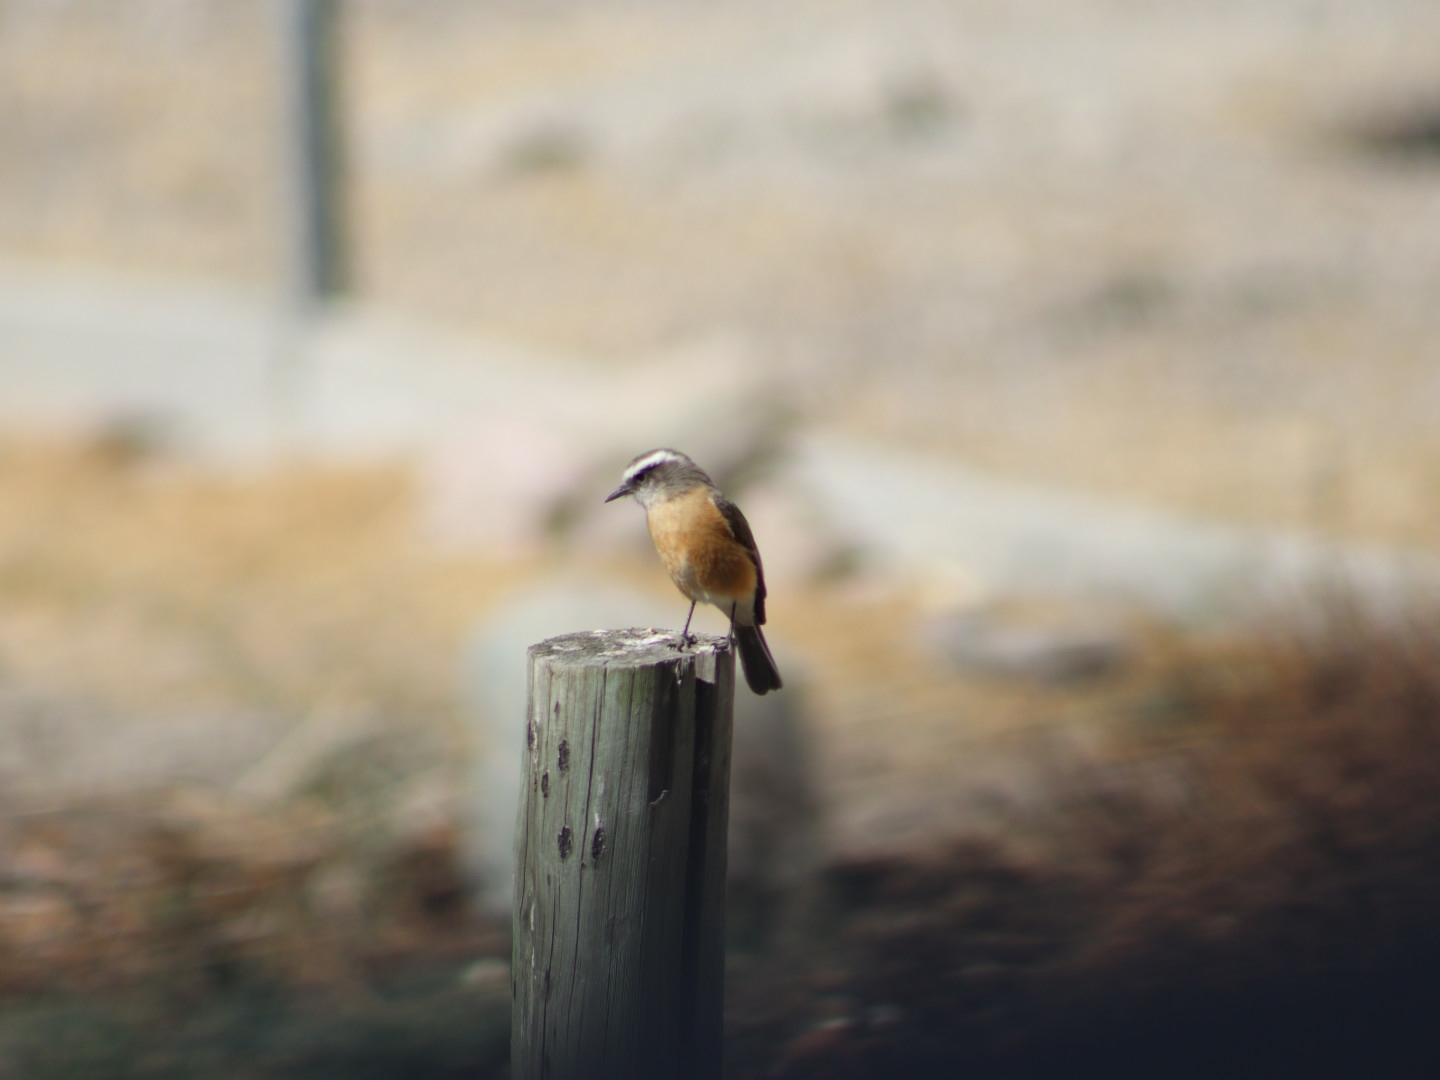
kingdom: Animalia
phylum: Chordata
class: Aves
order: Passeriformes
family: Tyrannidae
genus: Ochthoeca
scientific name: Ochthoeca oenanthoides
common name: D'orbigny's chat-tyrant
